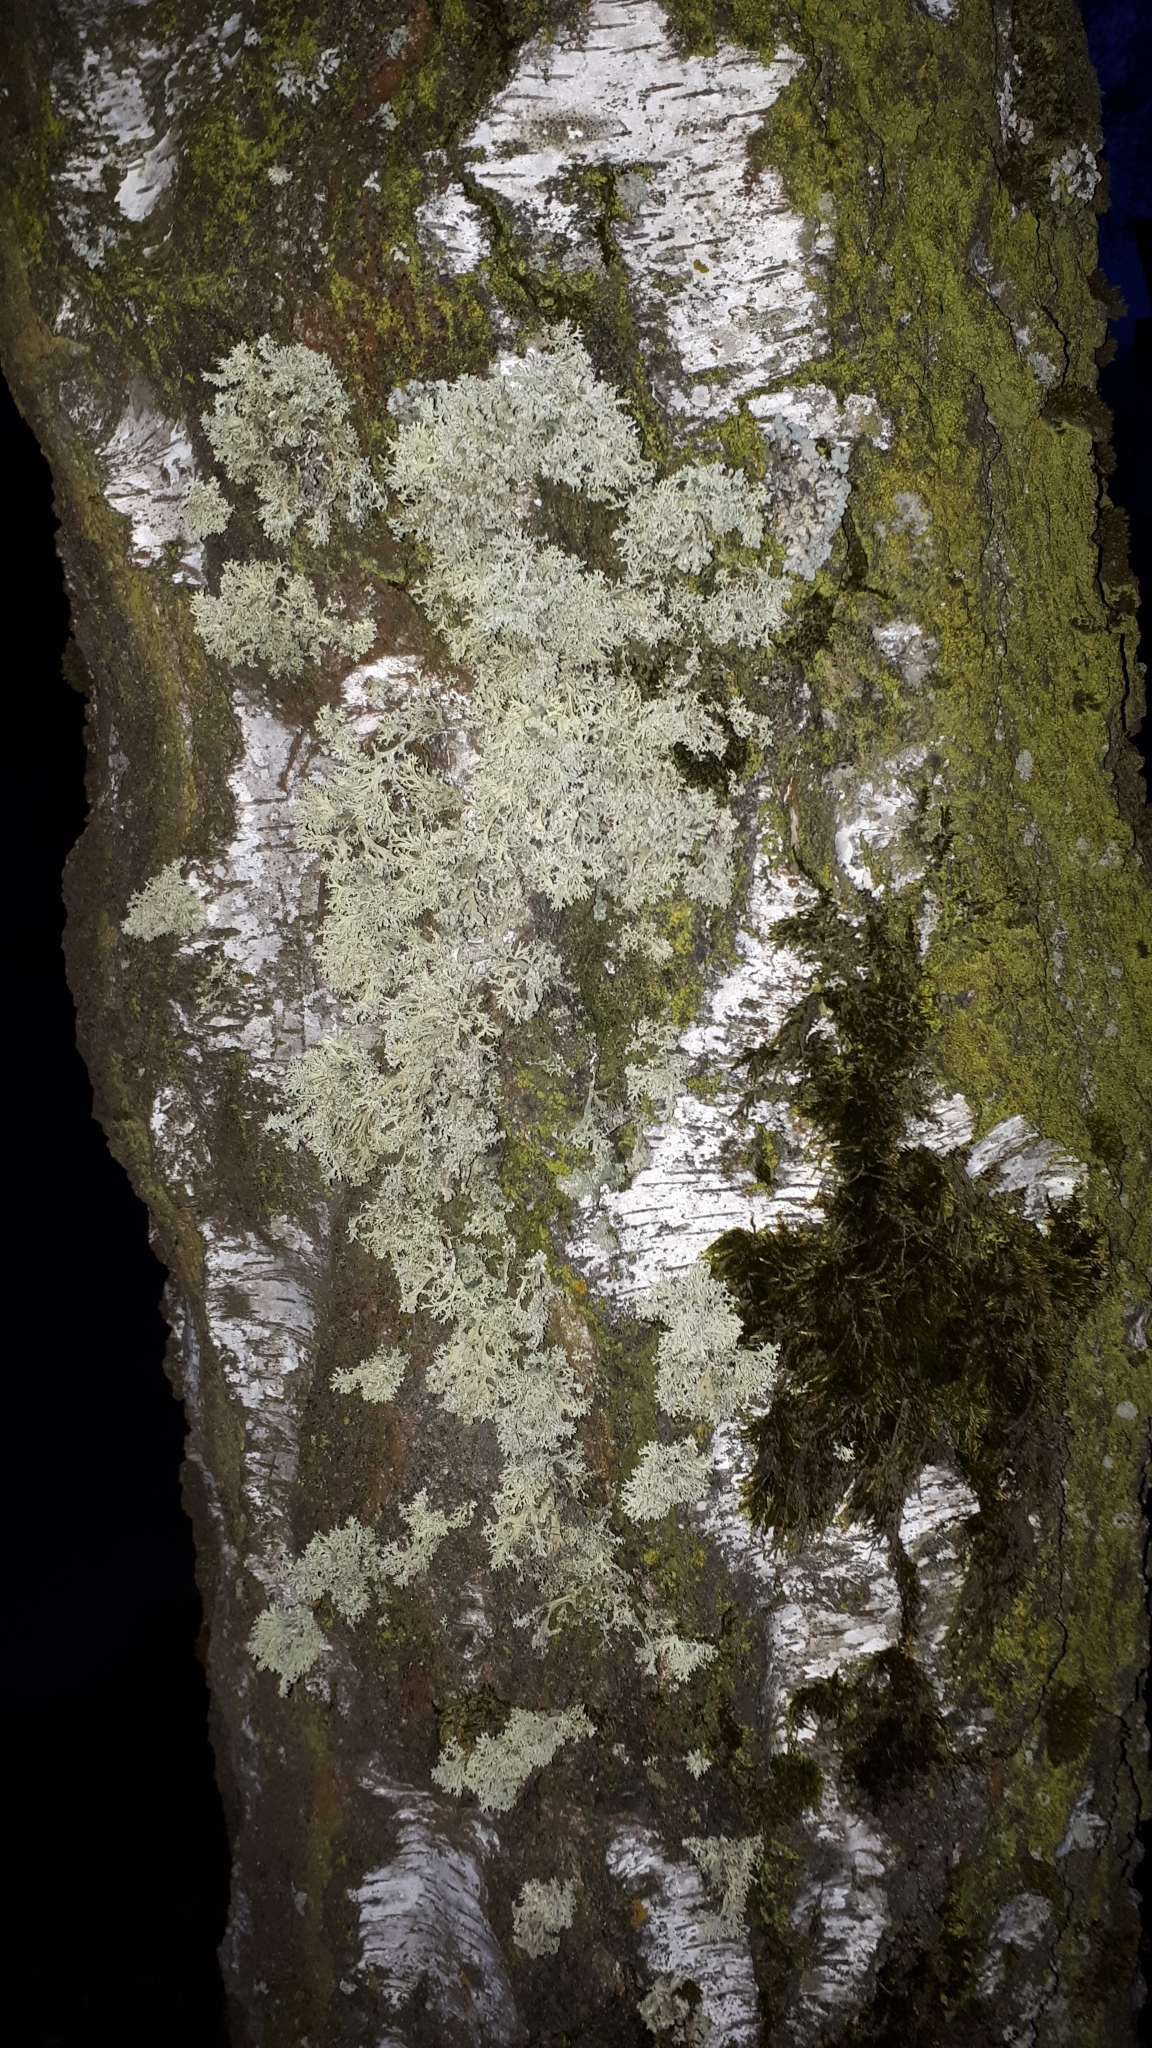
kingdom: Fungi
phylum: Ascomycota
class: Lecanoromycetes
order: Lecanorales
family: Parmeliaceae
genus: Evernia
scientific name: Evernia prunastri
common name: Oak moss
